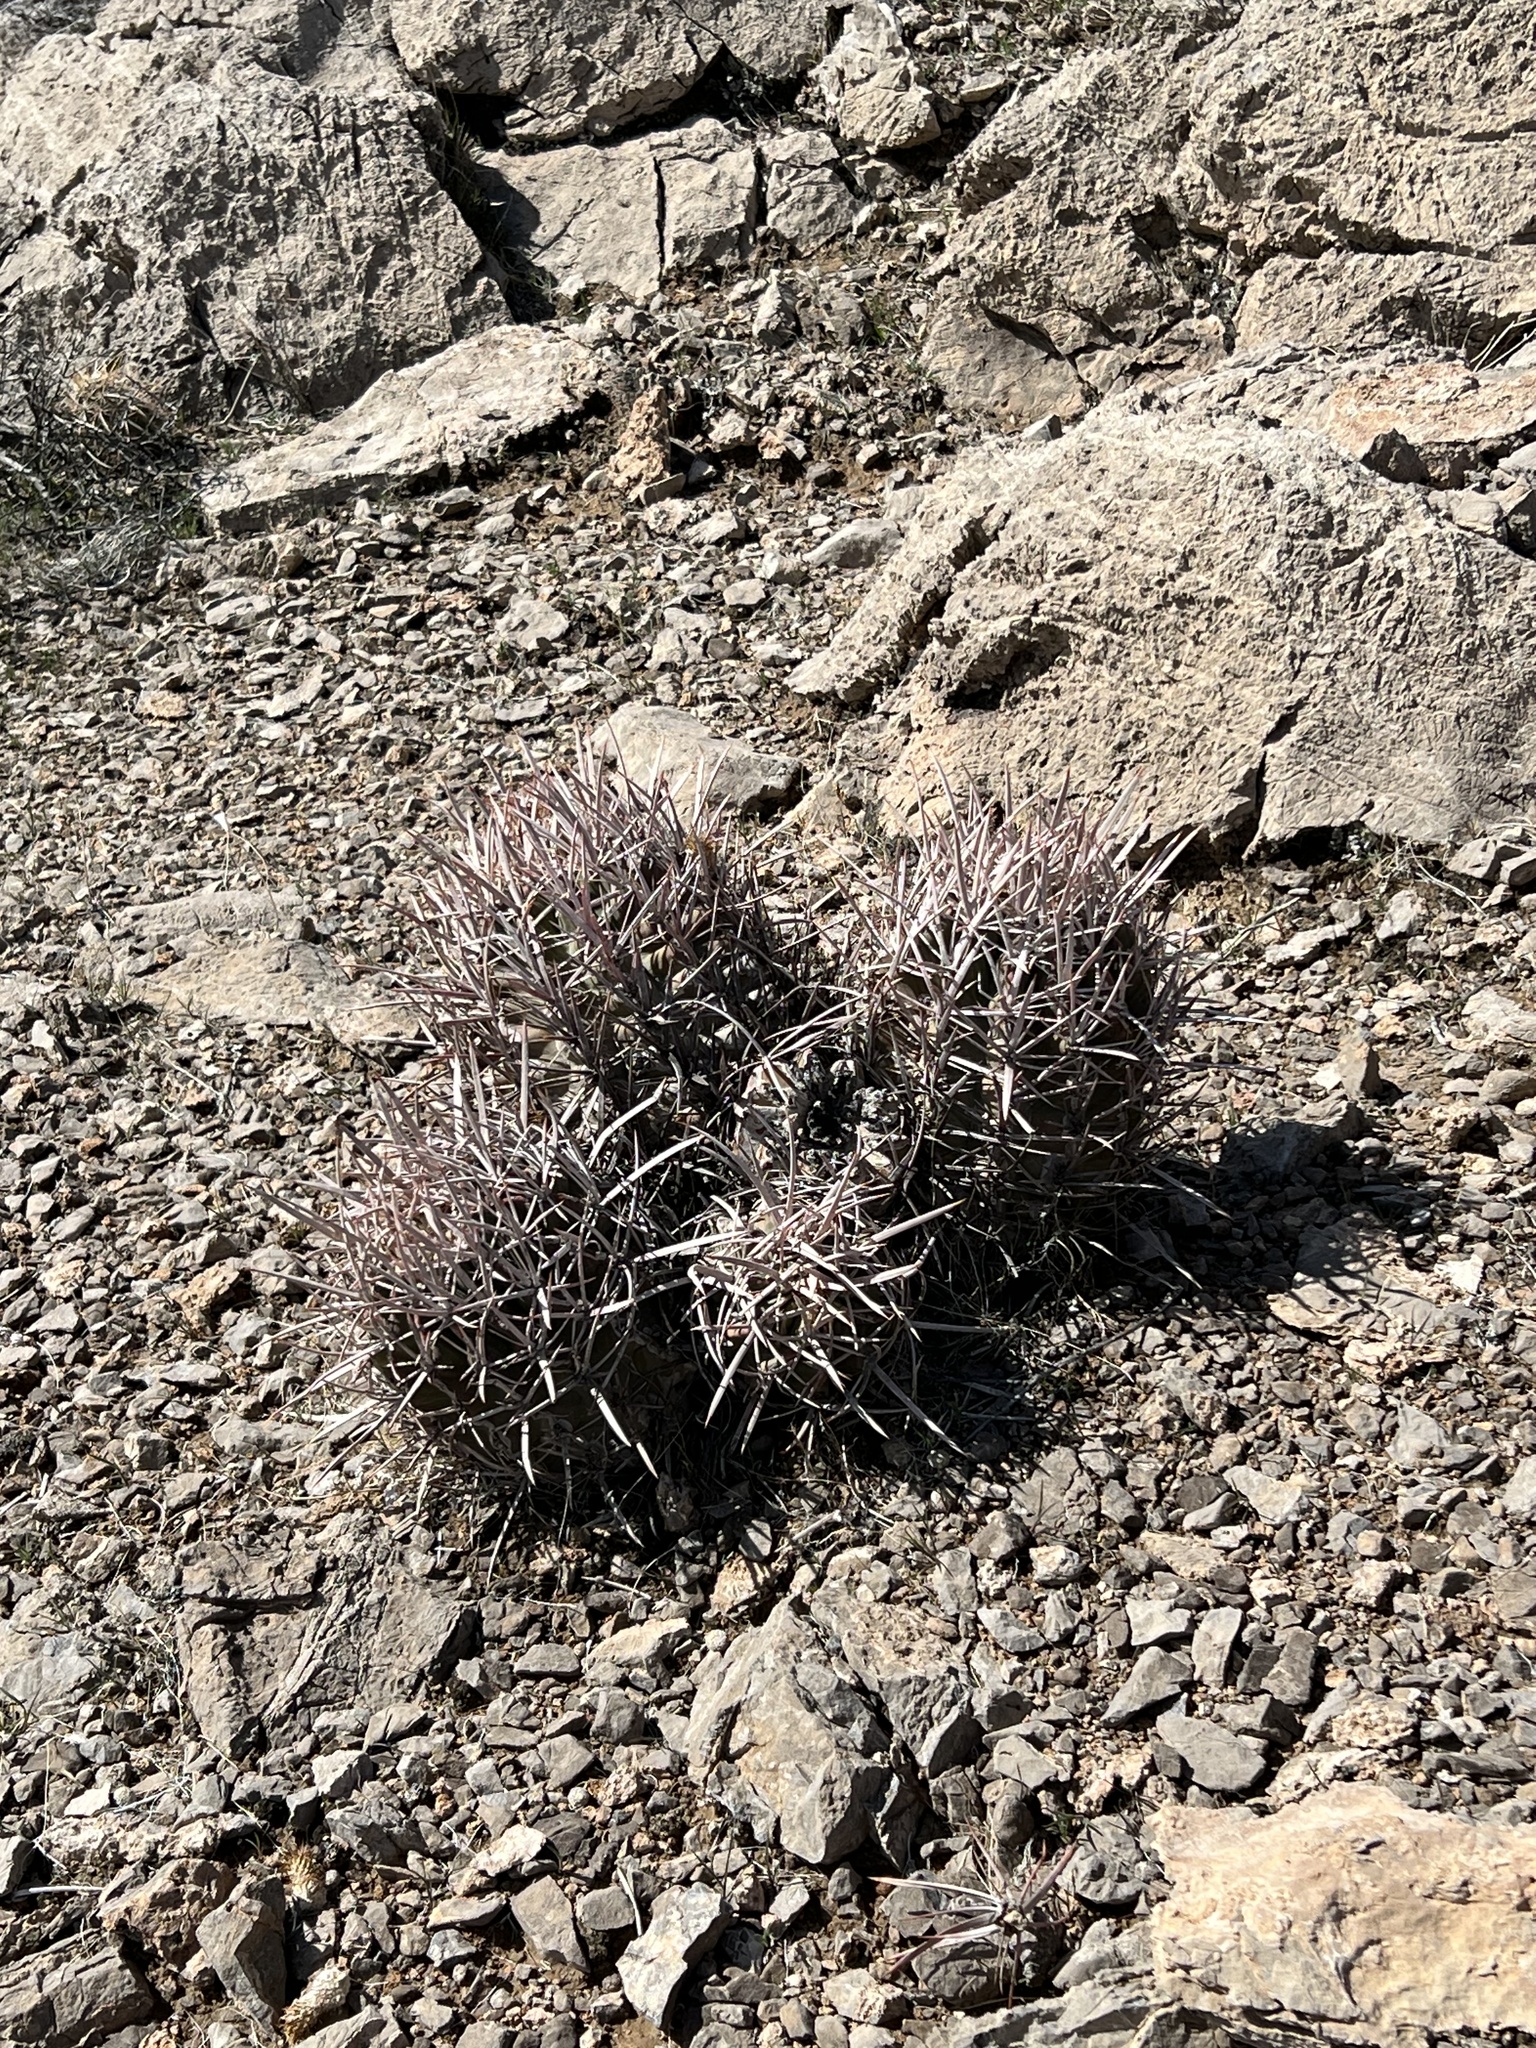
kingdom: Plantae
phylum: Tracheophyta
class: Magnoliopsida
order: Caryophyllales
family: Cactaceae
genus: Echinocactus
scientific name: Echinocactus polycephalus
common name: Cottontop cactus
